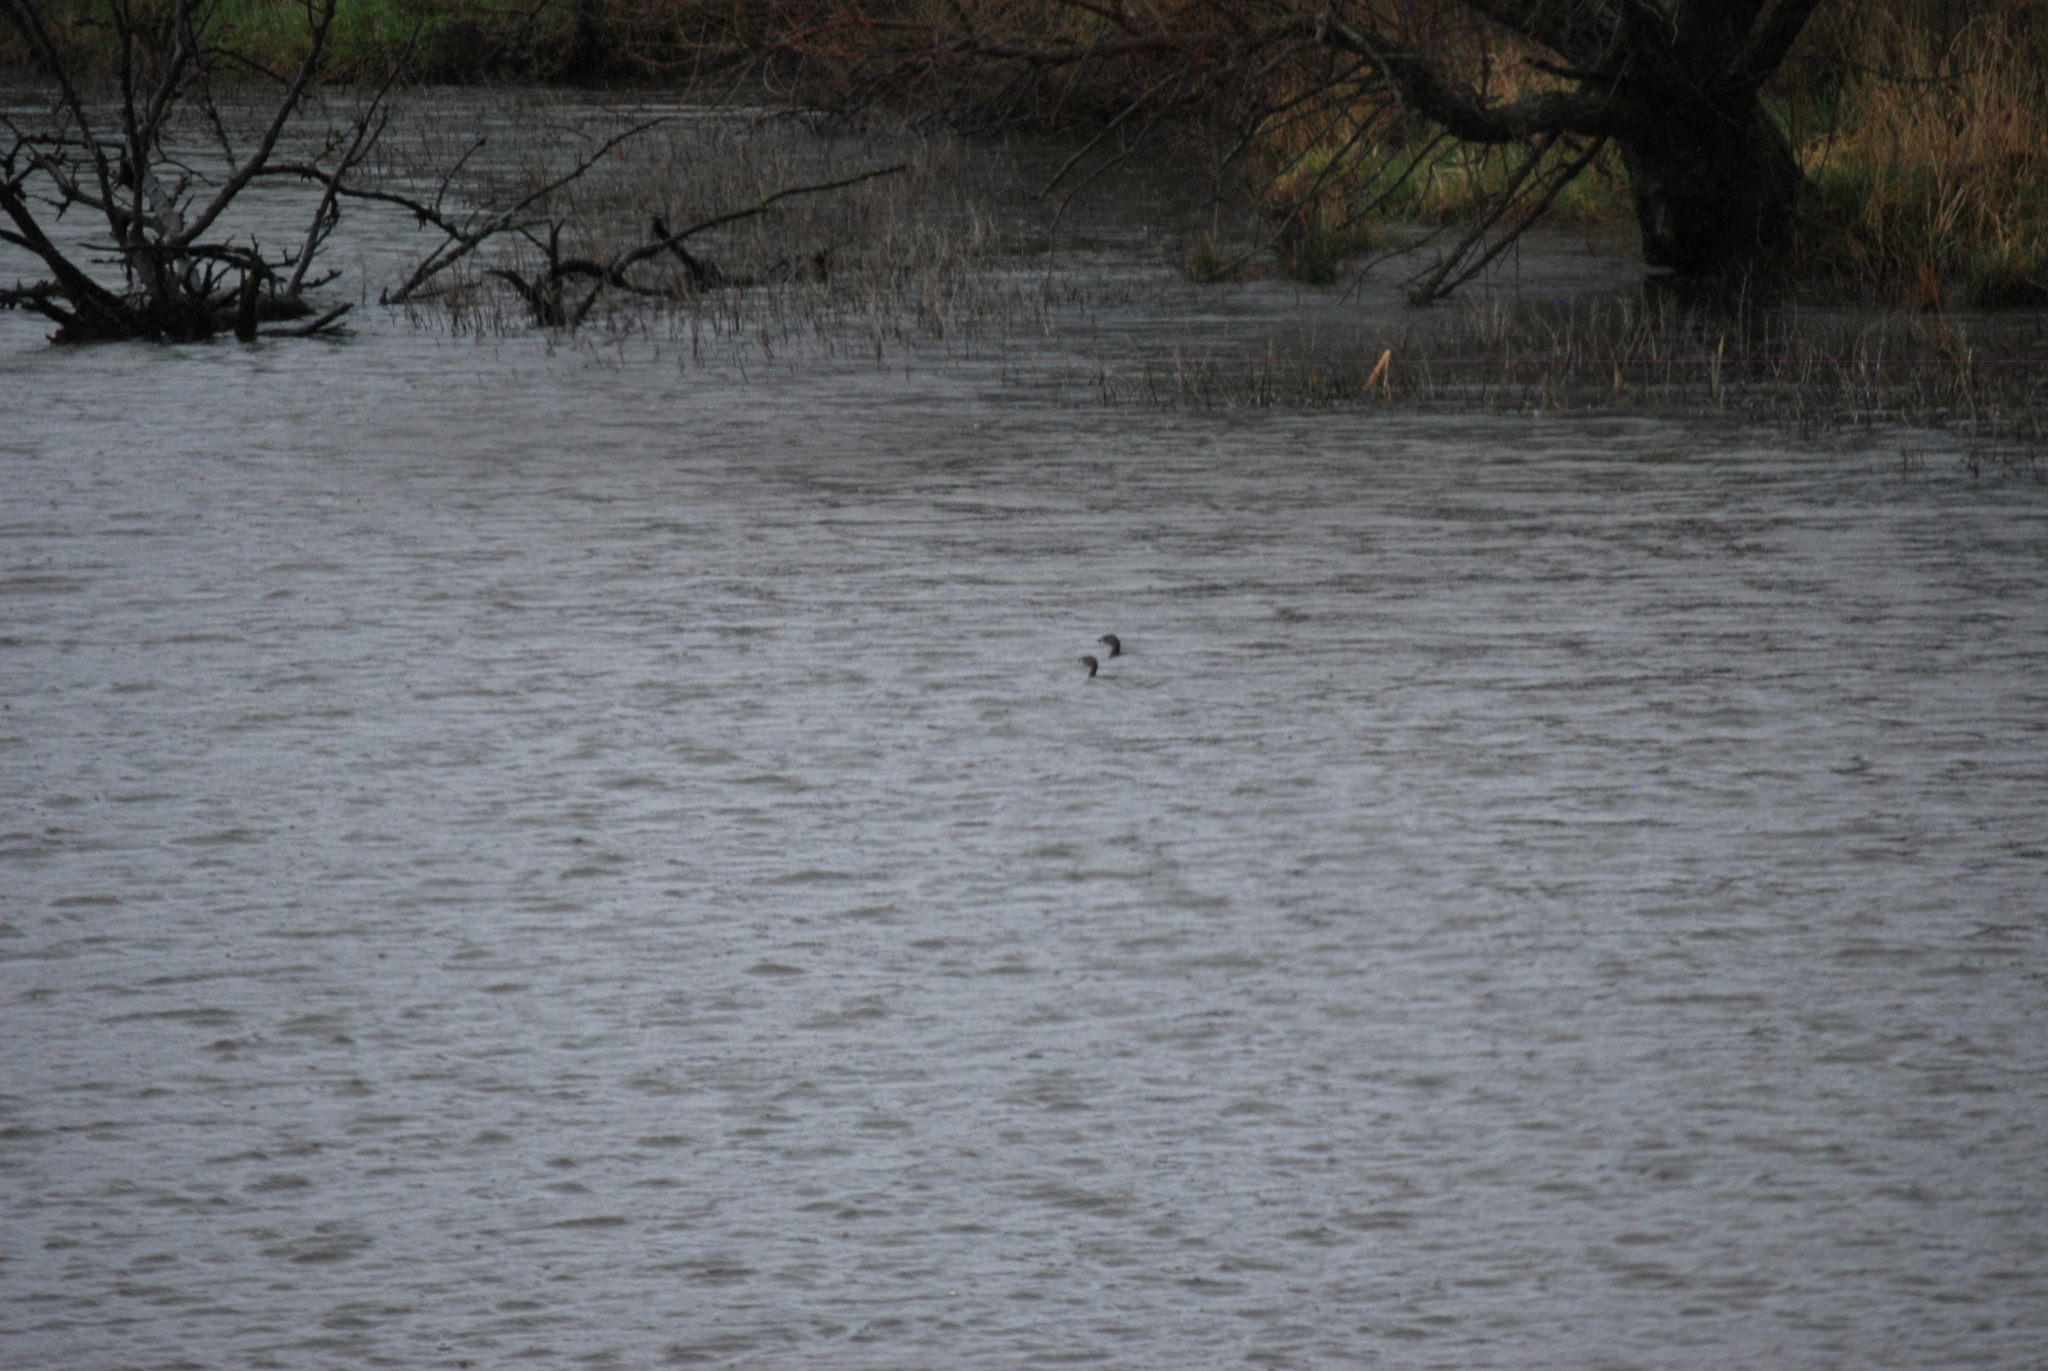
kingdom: Animalia
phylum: Chordata
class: Aves
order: Podicipediformes
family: Podicipedidae
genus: Podilymbus
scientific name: Podilymbus podiceps
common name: Pied-billed grebe
